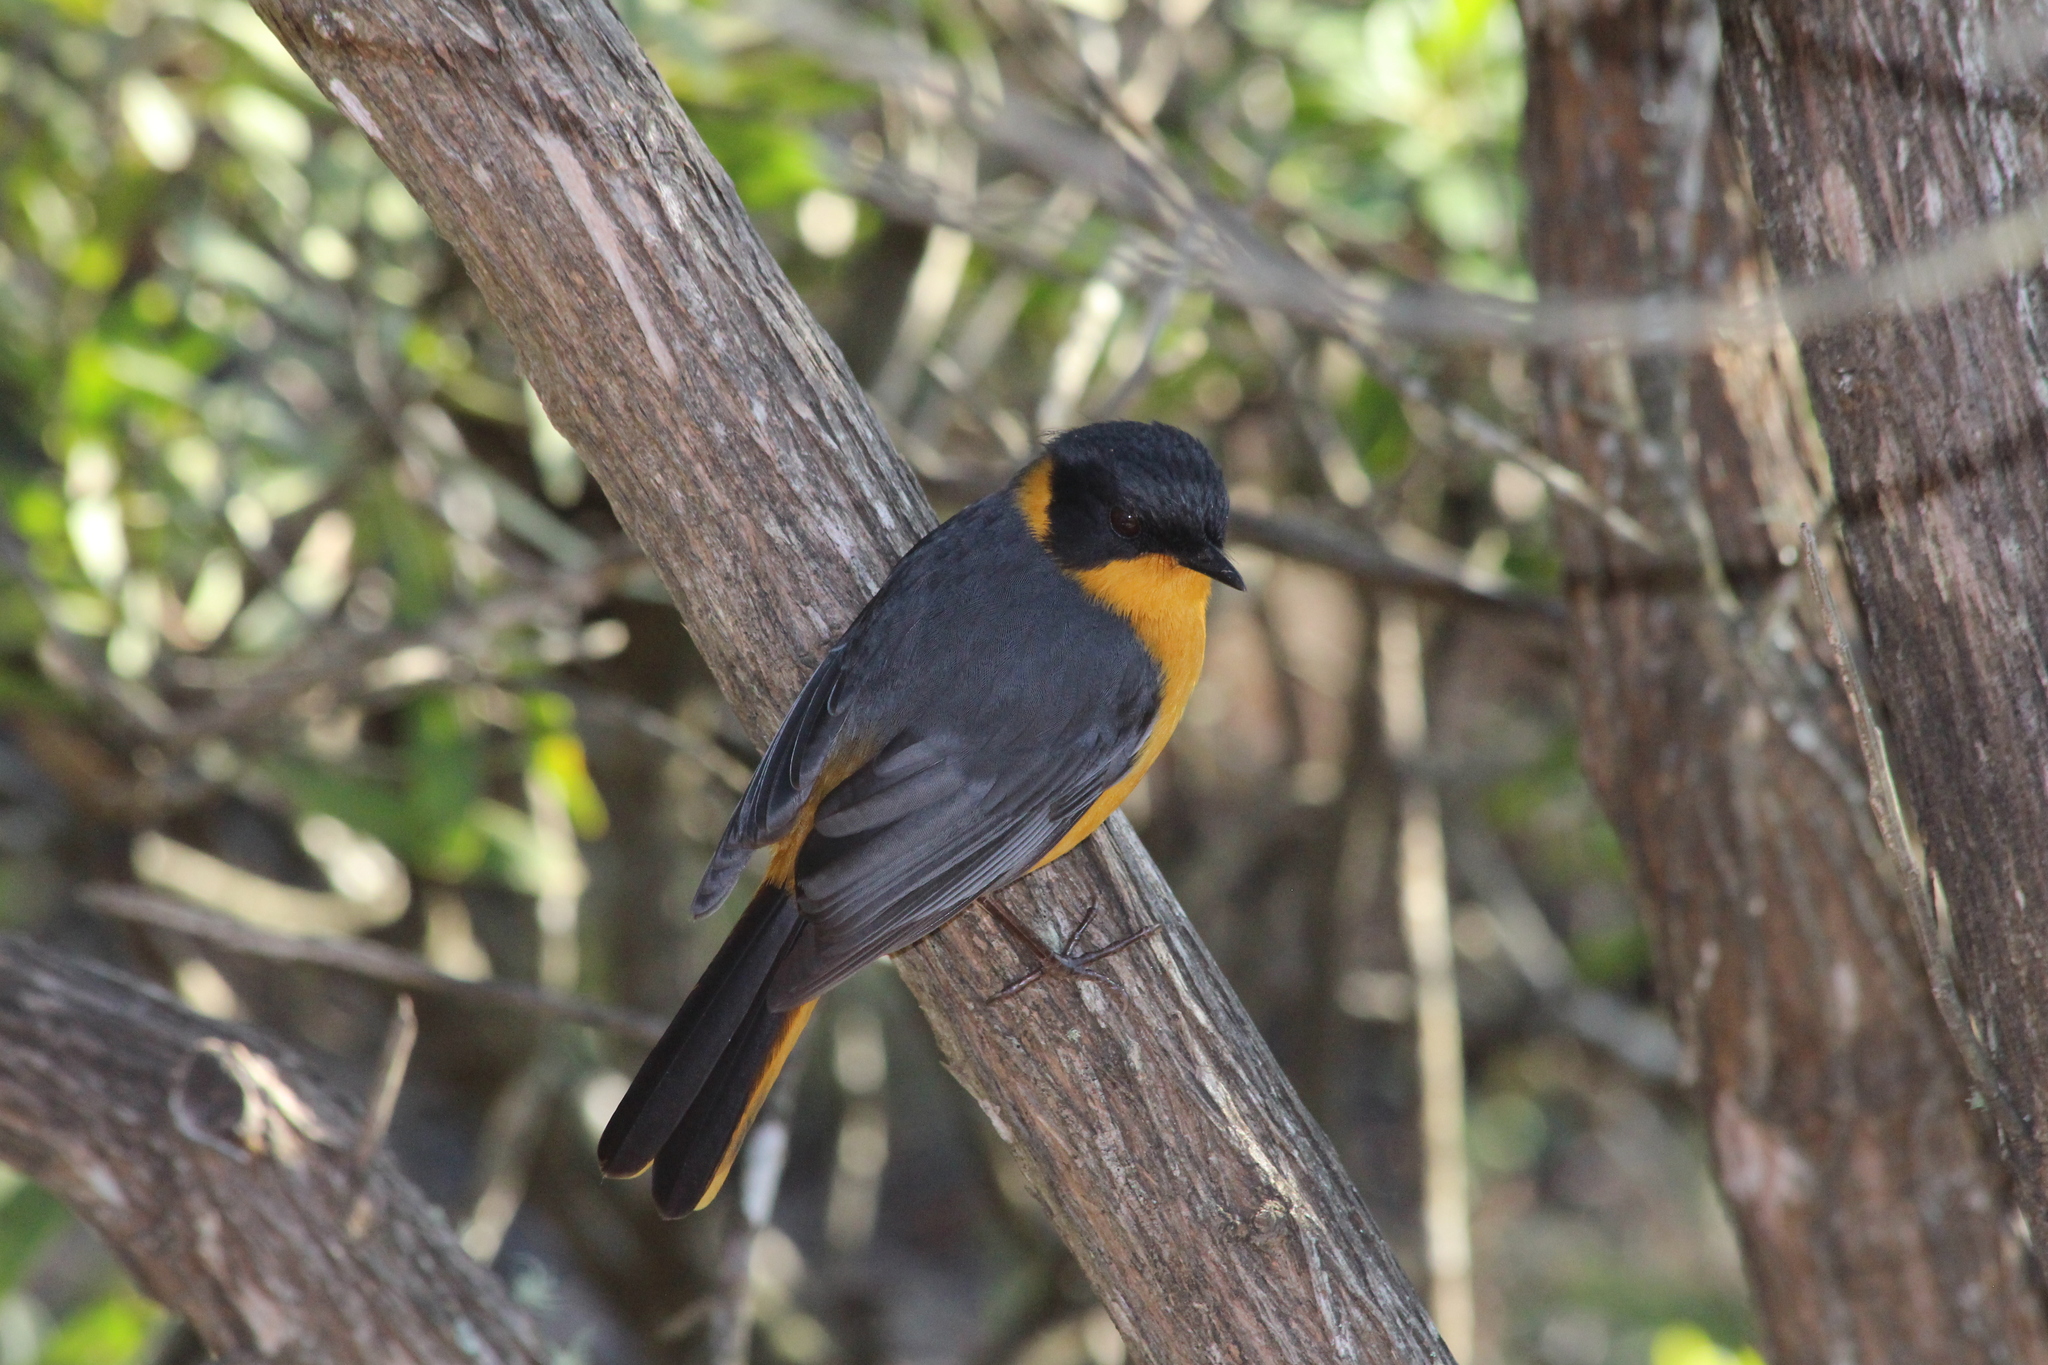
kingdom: Animalia
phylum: Chordata
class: Aves
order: Passeriformes
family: Muscicapidae
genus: Cossypha
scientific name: Cossypha dichroa
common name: Chorister robin-chat
